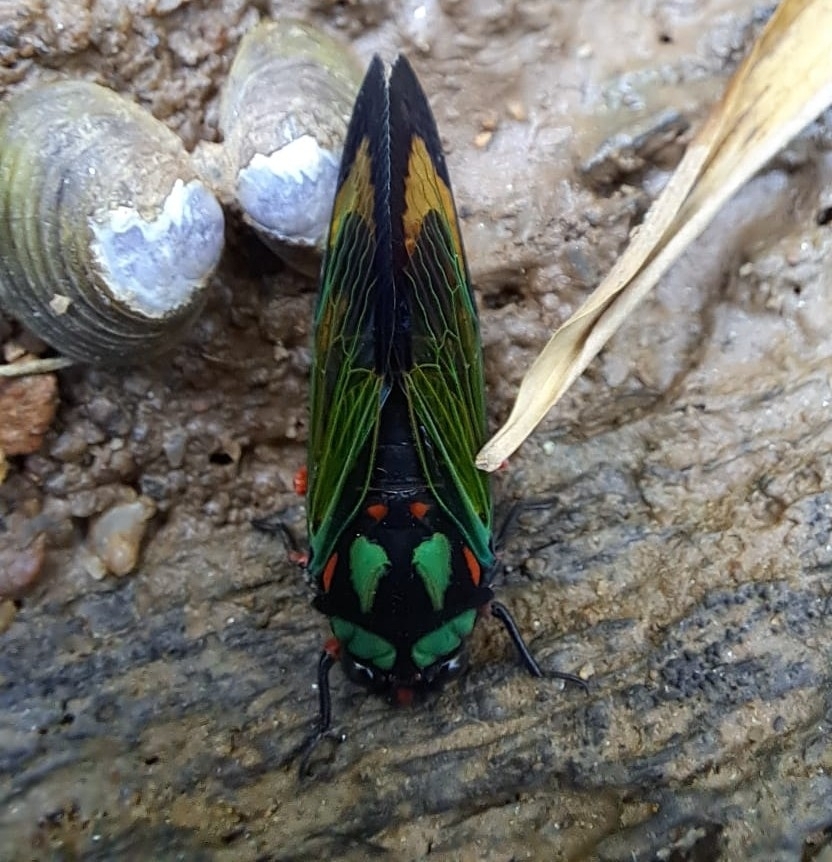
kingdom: Animalia
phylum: Arthropoda
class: Insecta
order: Hemiptera
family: Cicadidae
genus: Carineta
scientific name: Carineta diardi
